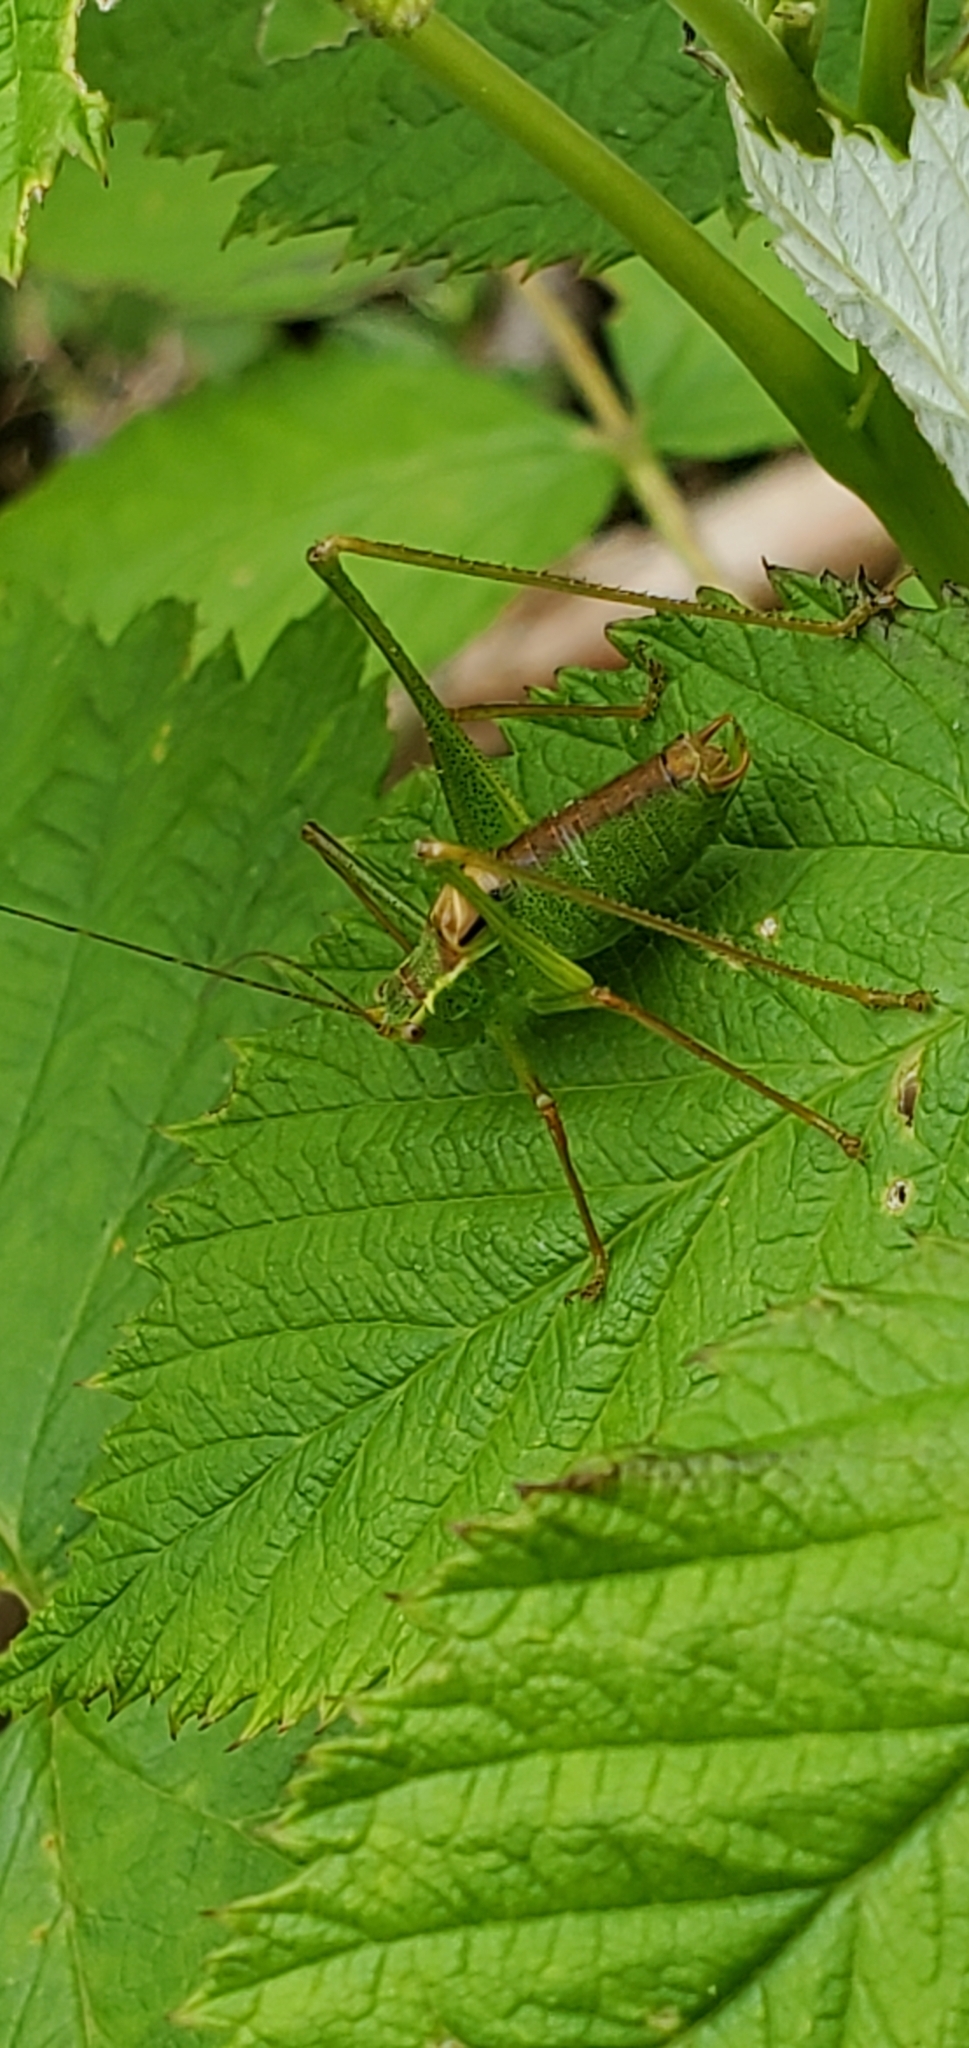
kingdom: Animalia
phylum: Arthropoda
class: Insecta
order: Orthoptera
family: Tettigoniidae
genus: Leptophyes
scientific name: Leptophyes punctatissima
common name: Speckled bush-cricket
